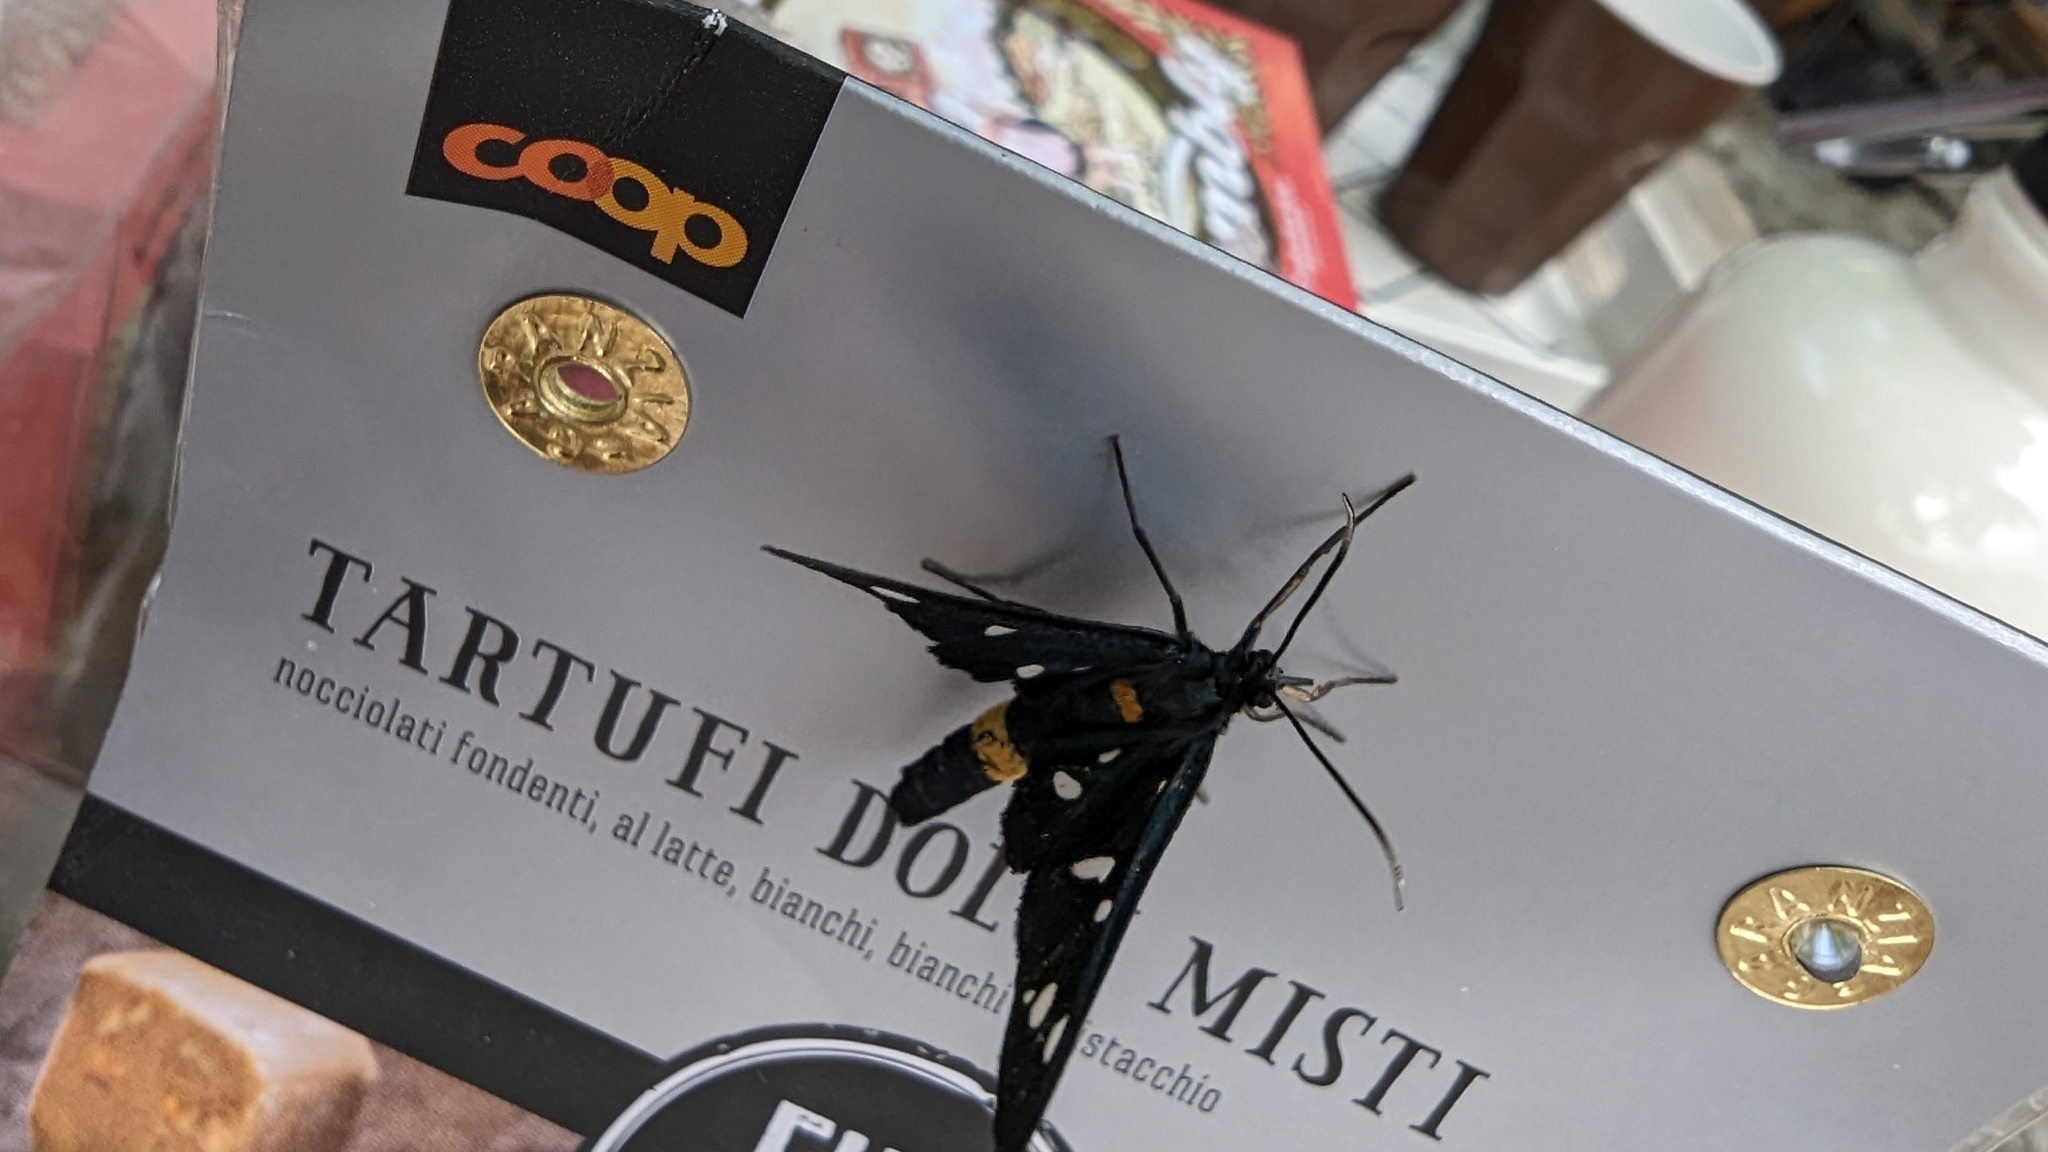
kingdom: Animalia
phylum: Arthropoda
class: Insecta
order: Lepidoptera
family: Erebidae
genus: Amata
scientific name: Amata phegea
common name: Nine-spotted
